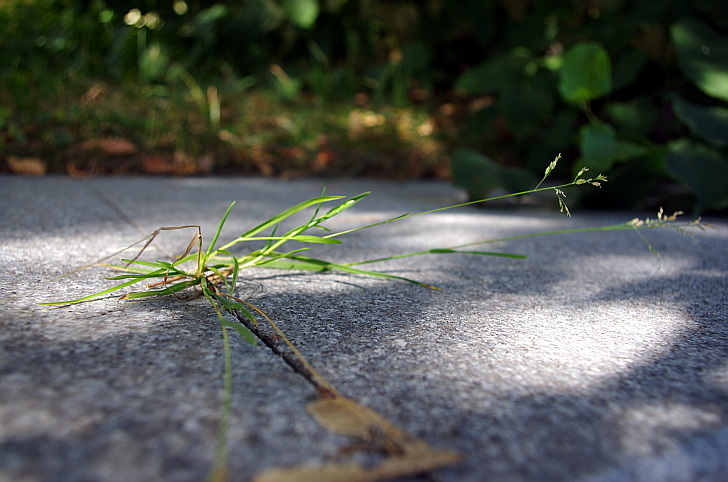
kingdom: Plantae
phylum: Tracheophyta
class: Liliopsida
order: Poales
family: Poaceae
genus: Poa
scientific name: Poa annua
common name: Annual bluegrass
